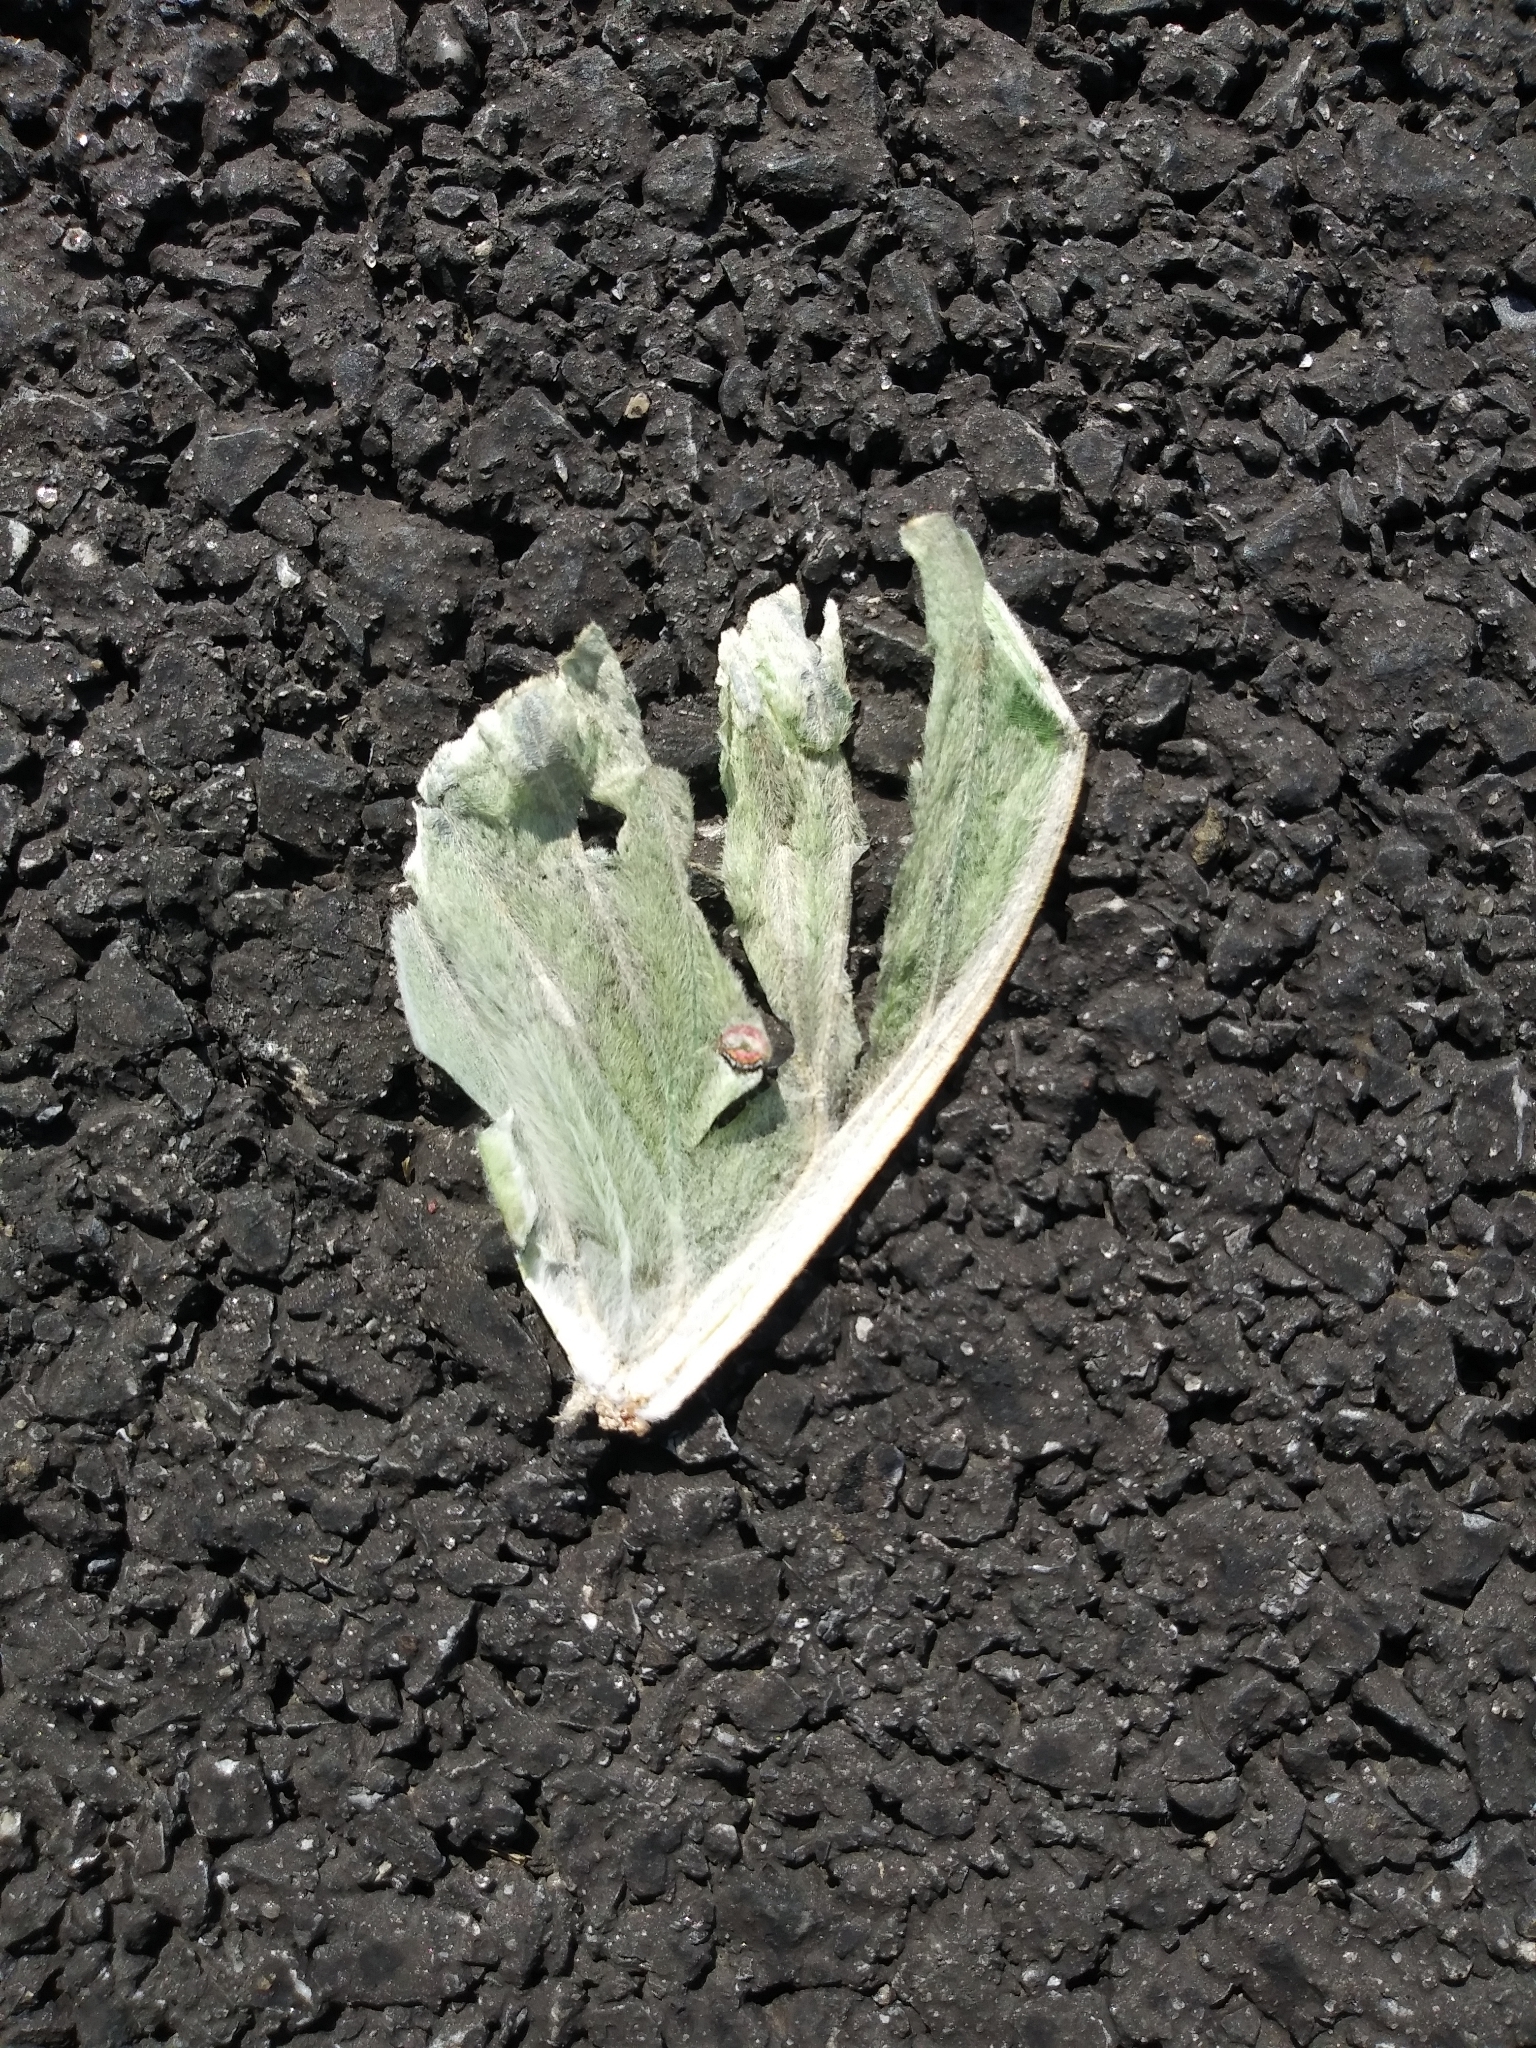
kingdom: Animalia
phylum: Arthropoda
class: Insecta
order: Lepidoptera
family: Saturniidae
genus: Actias
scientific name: Actias luna
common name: Luna moth
